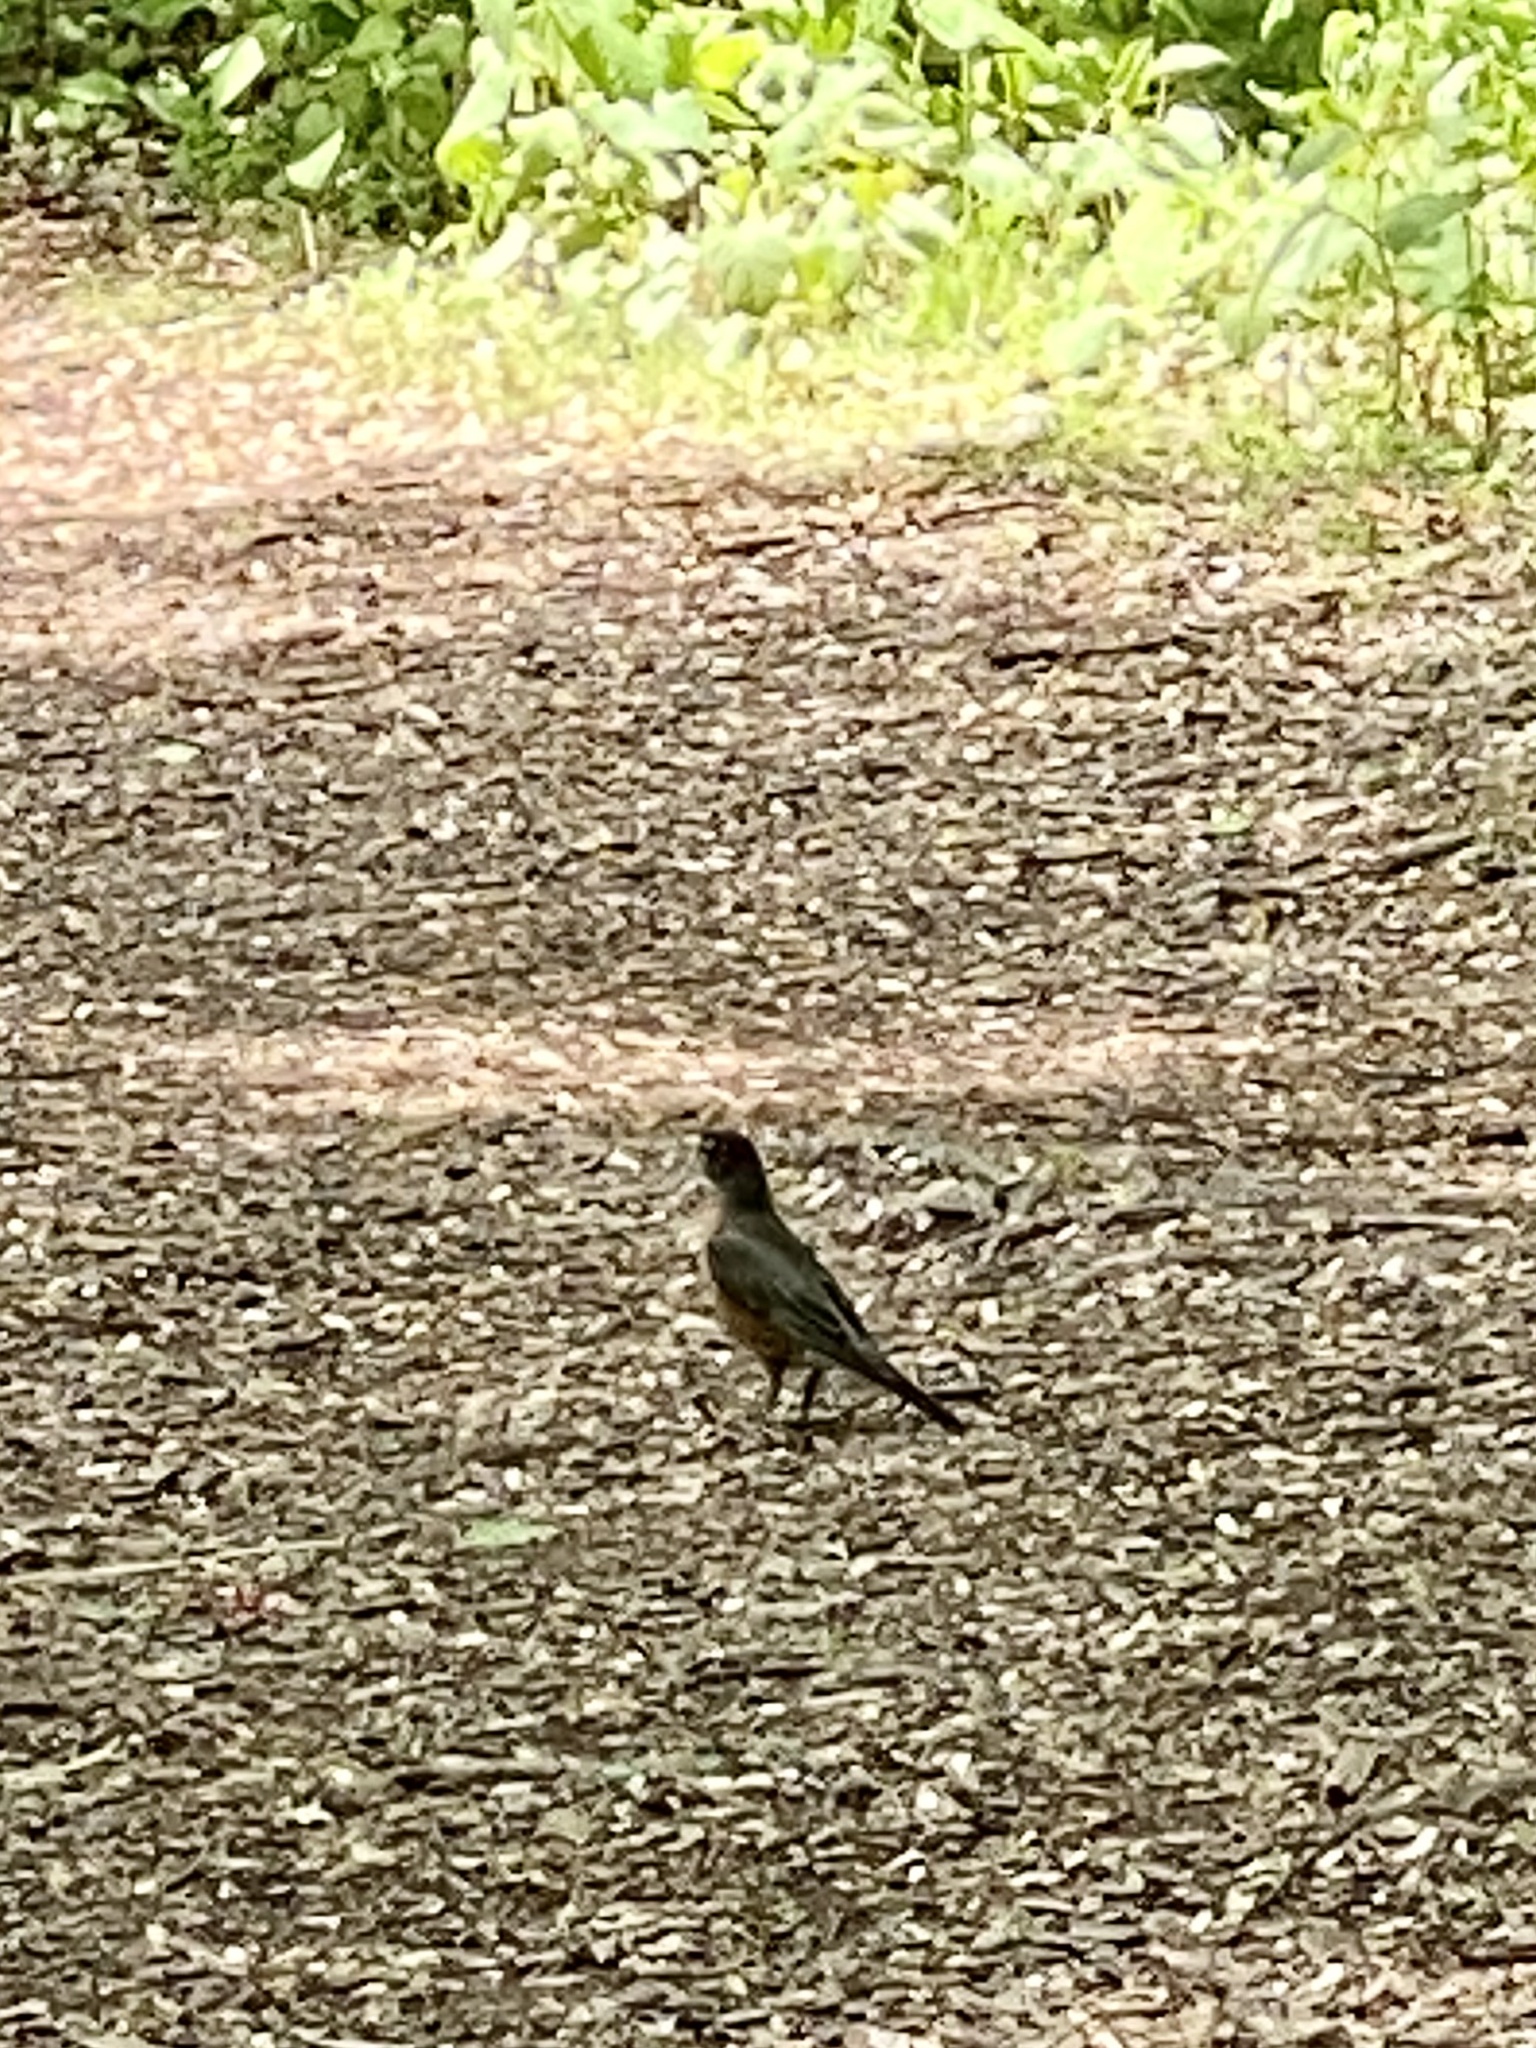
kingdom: Animalia
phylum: Chordata
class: Aves
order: Passeriformes
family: Turdidae
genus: Turdus
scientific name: Turdus migratorius
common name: American robin
